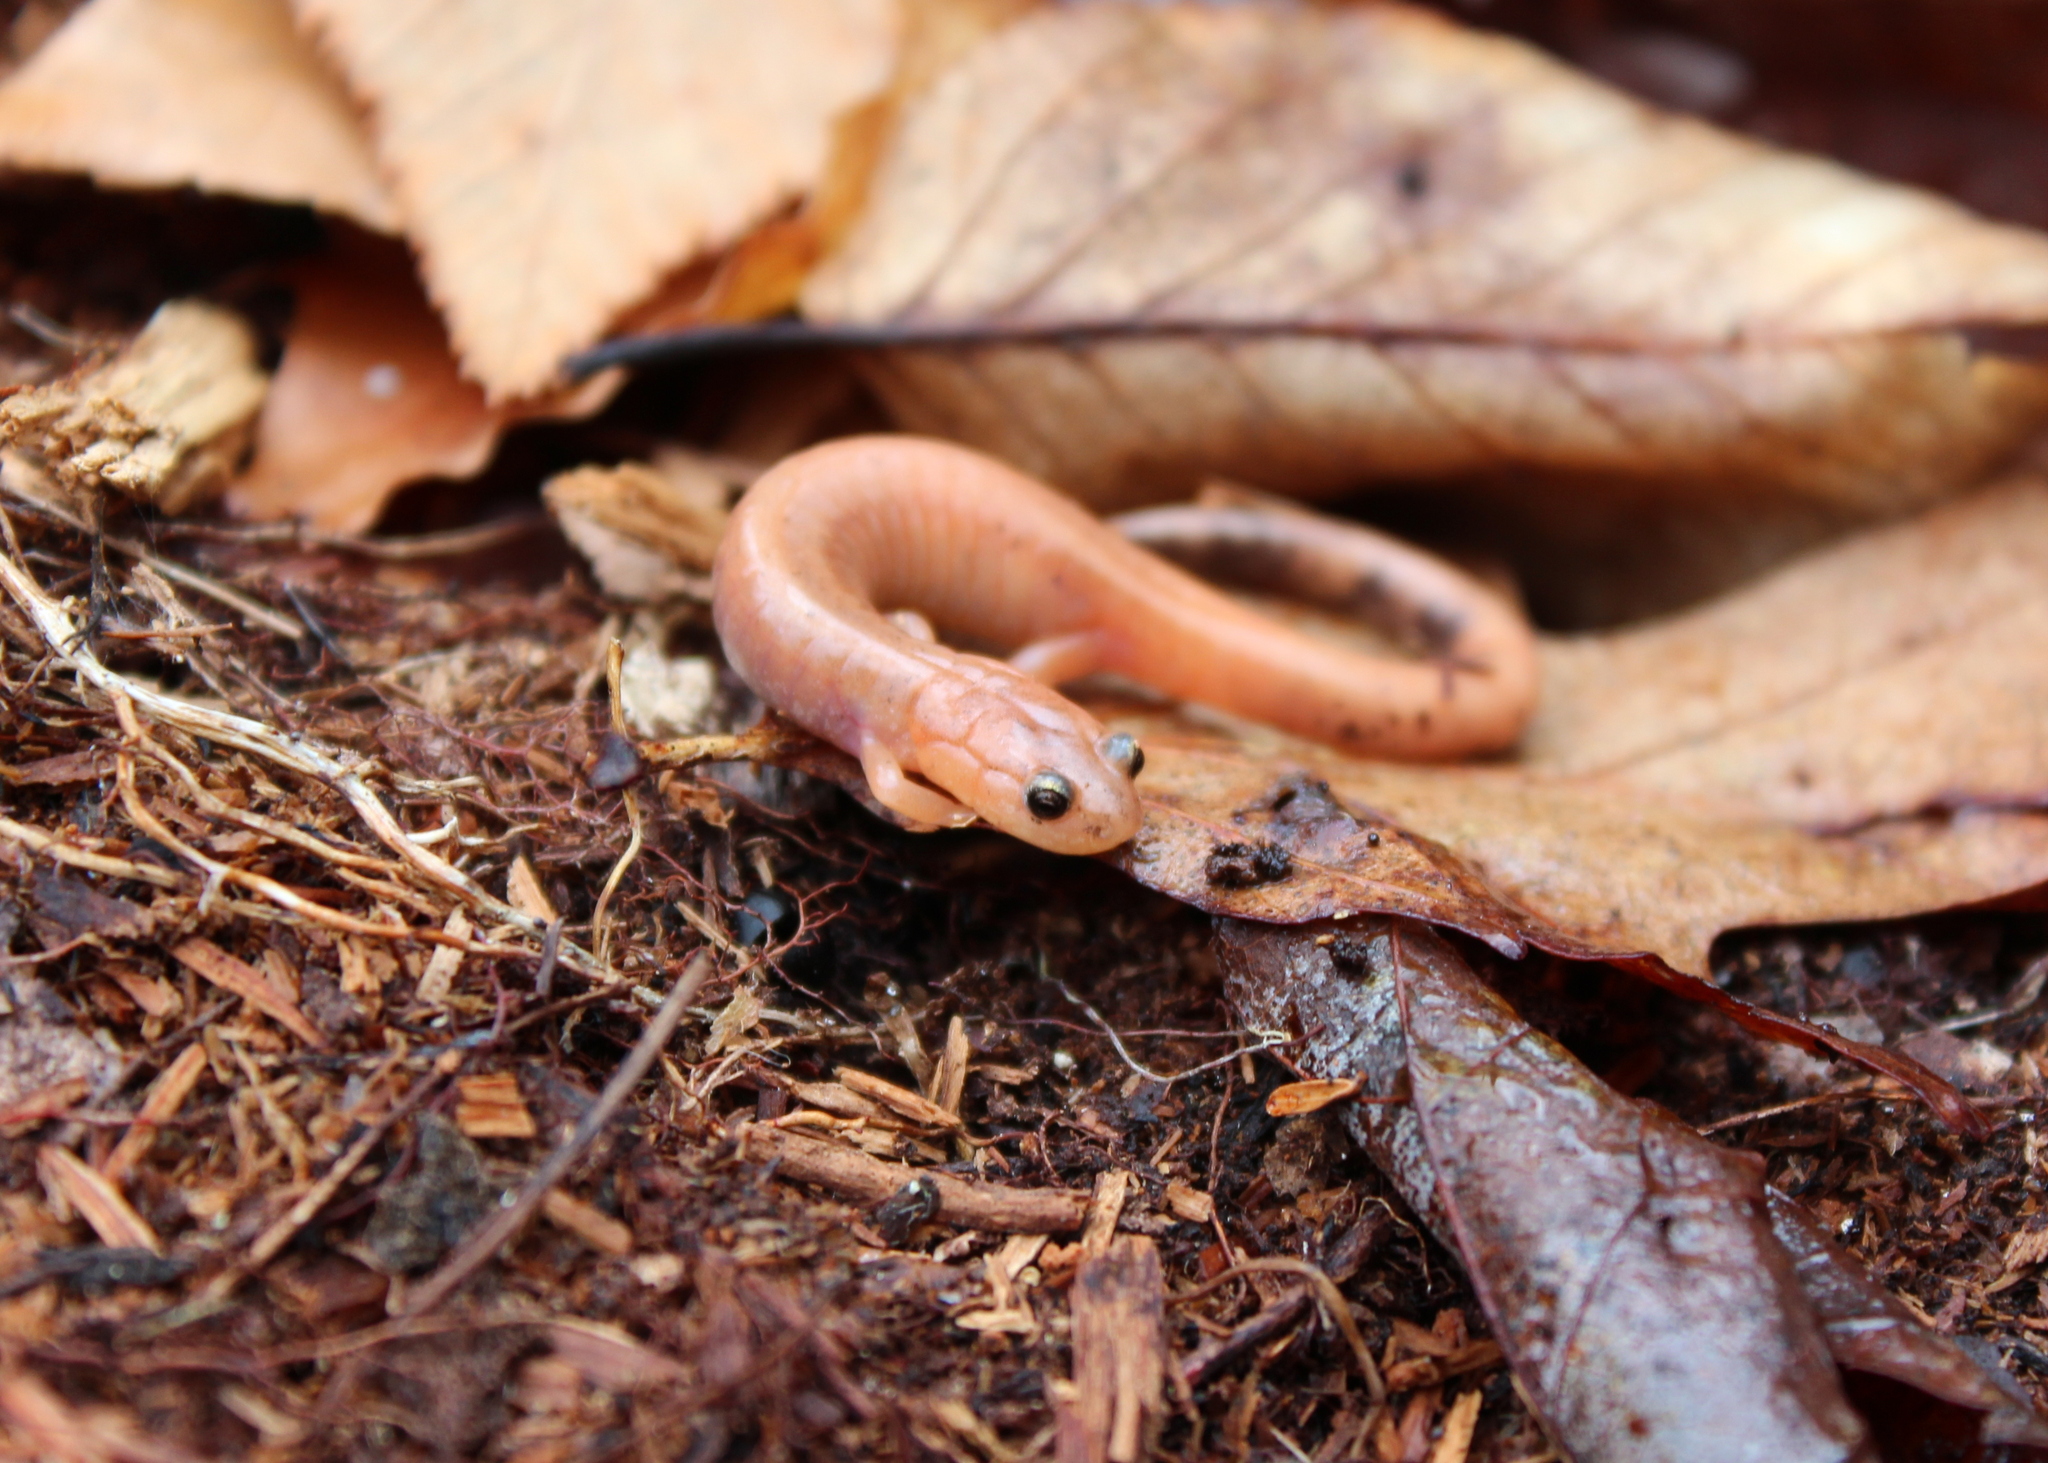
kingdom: Animalia
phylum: Chordata
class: Amphibia
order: Caudata
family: Plethodontidae
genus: Plethodon
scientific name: Plethodon cinereus
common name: Redback salamander
